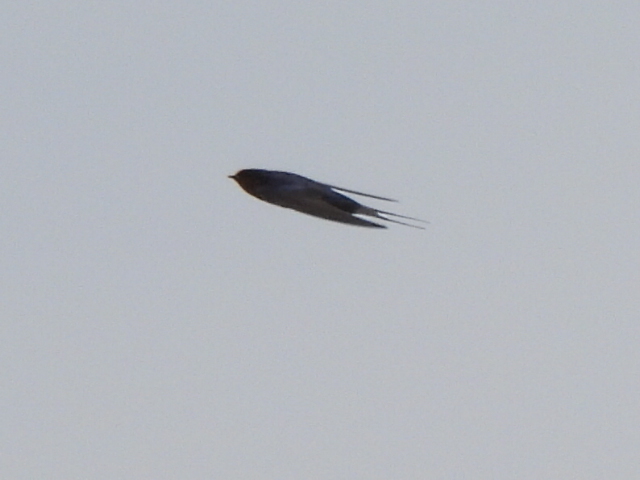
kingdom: Animalia
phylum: Chordata
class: Aves
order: Passeriformes
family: Hirundinidae
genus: Hirundo
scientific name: Hirundo rustica
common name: Barn swallow
